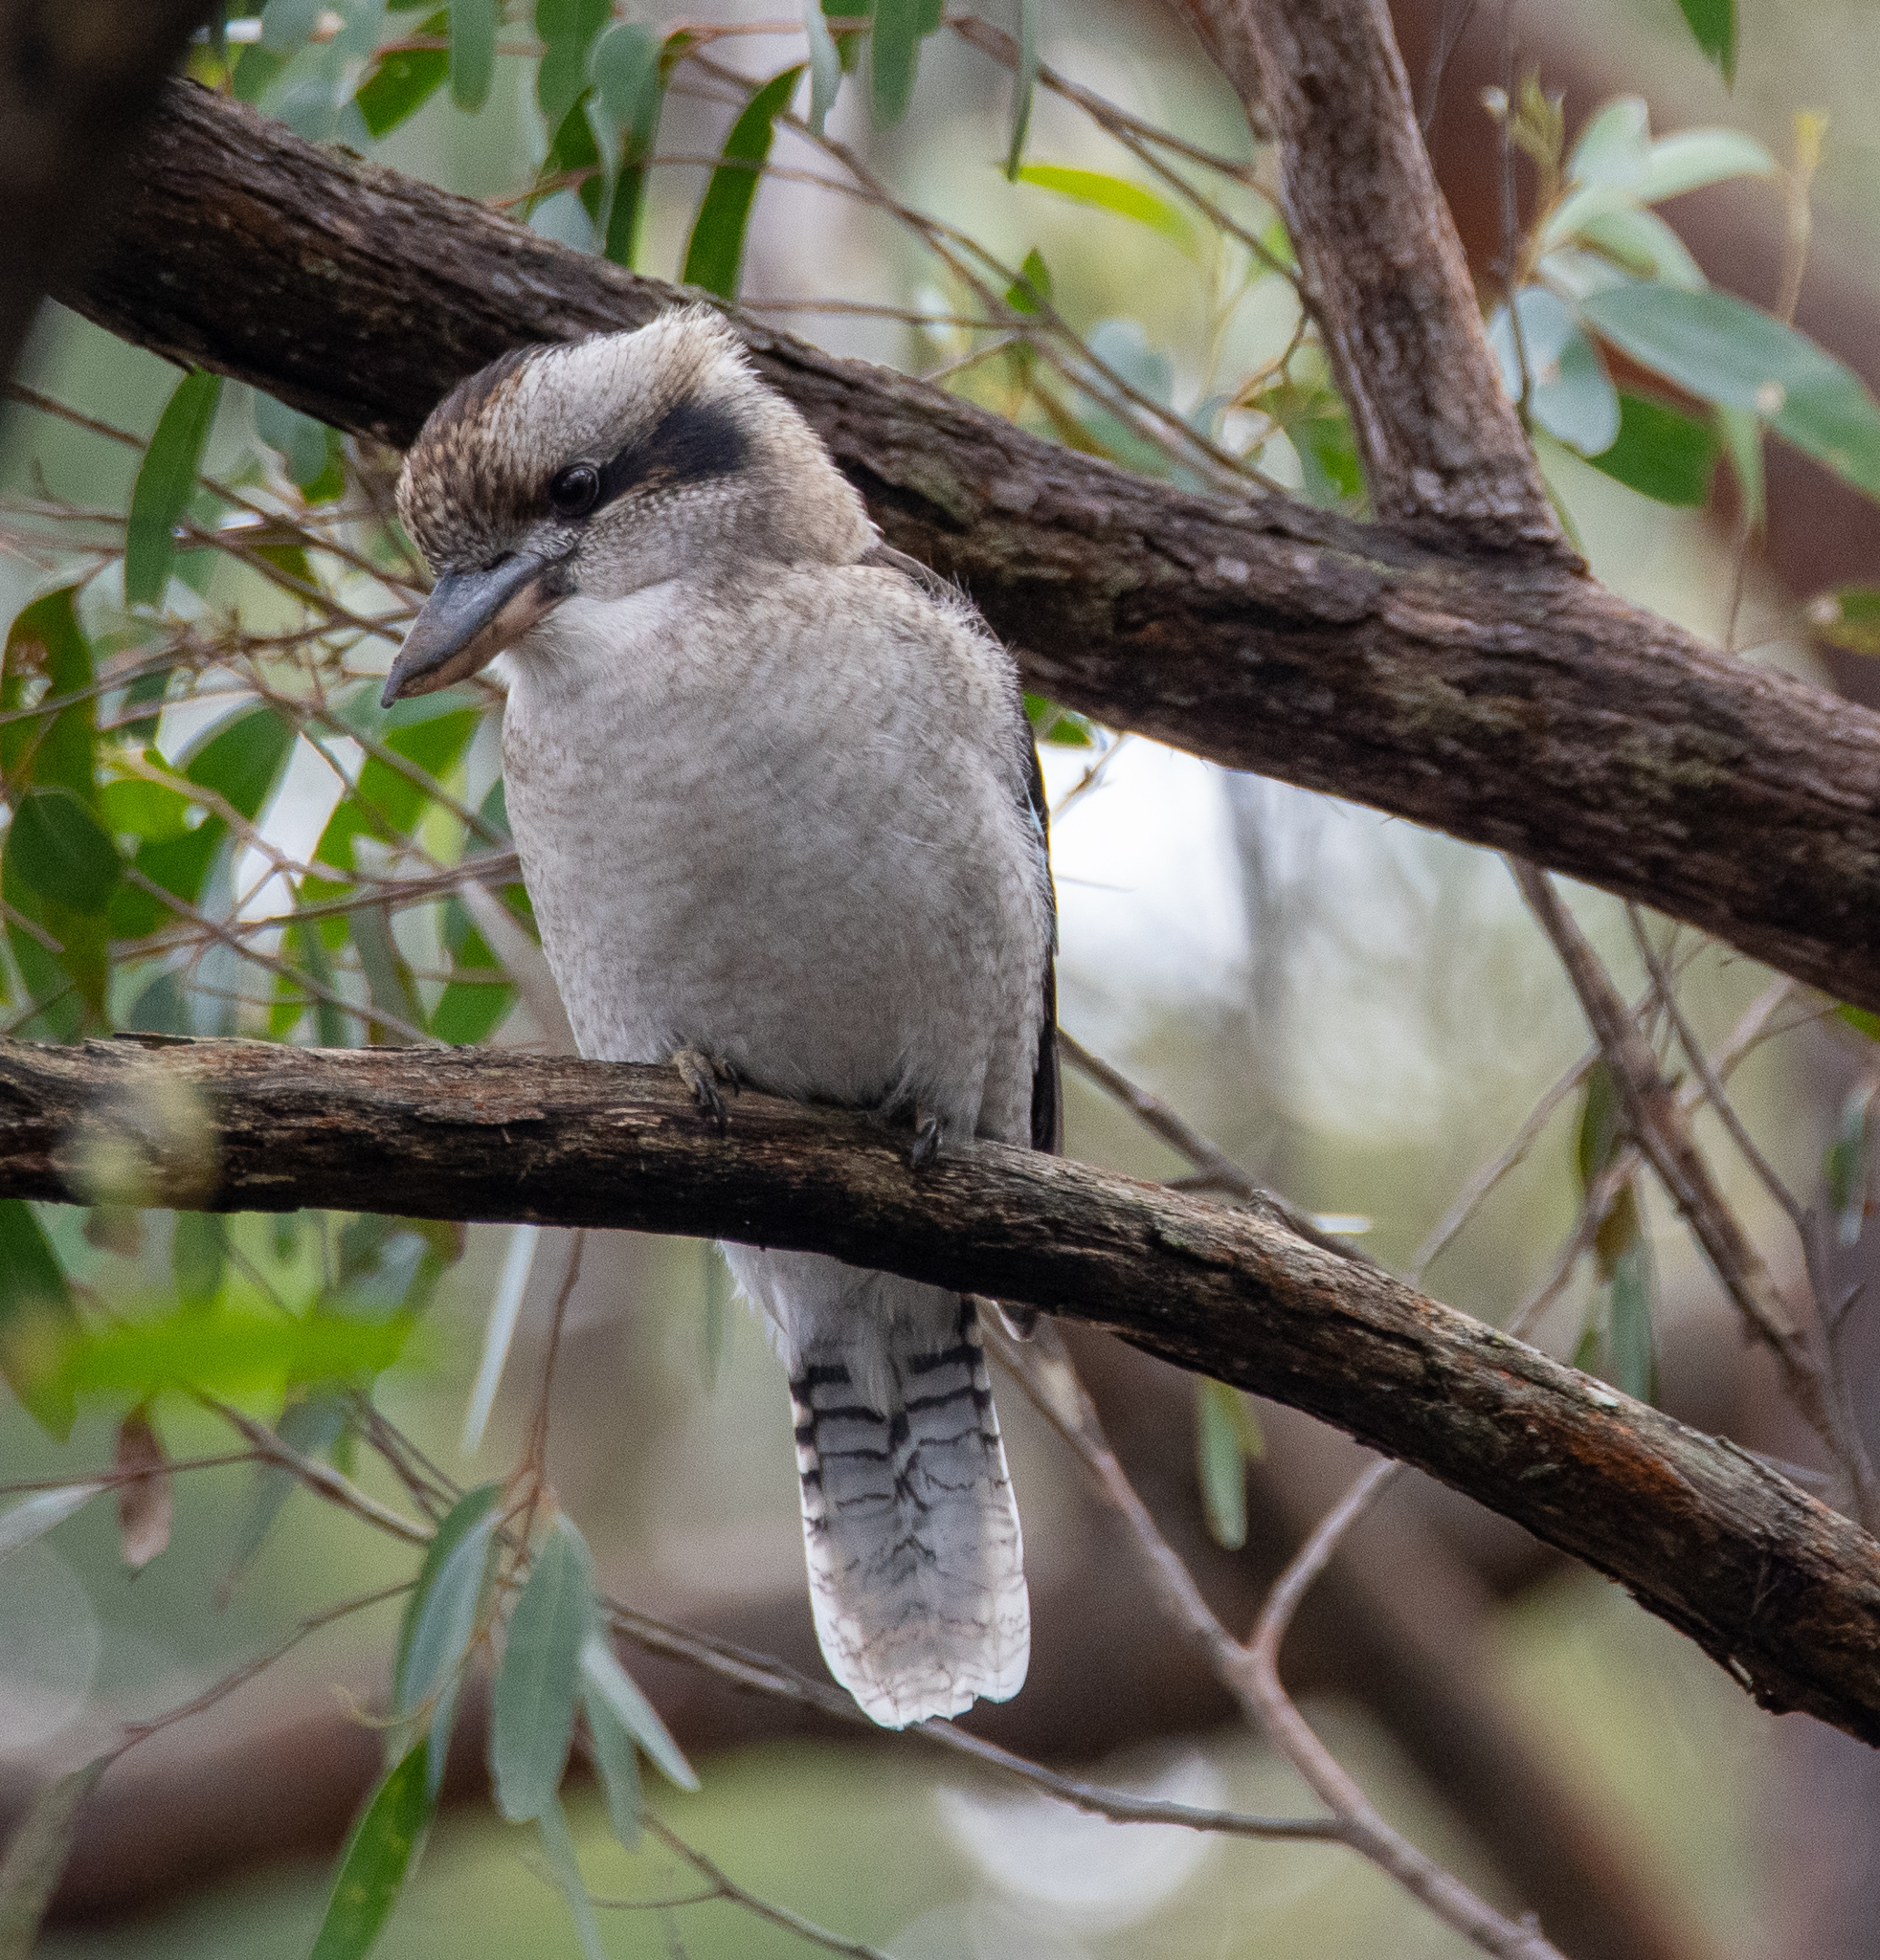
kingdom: Animalia
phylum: Chordata
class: Aves
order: Coraciiformes
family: Alcedinidae
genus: Dacelo
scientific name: Dacelo novaeguineae
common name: Laughing kookaburra
